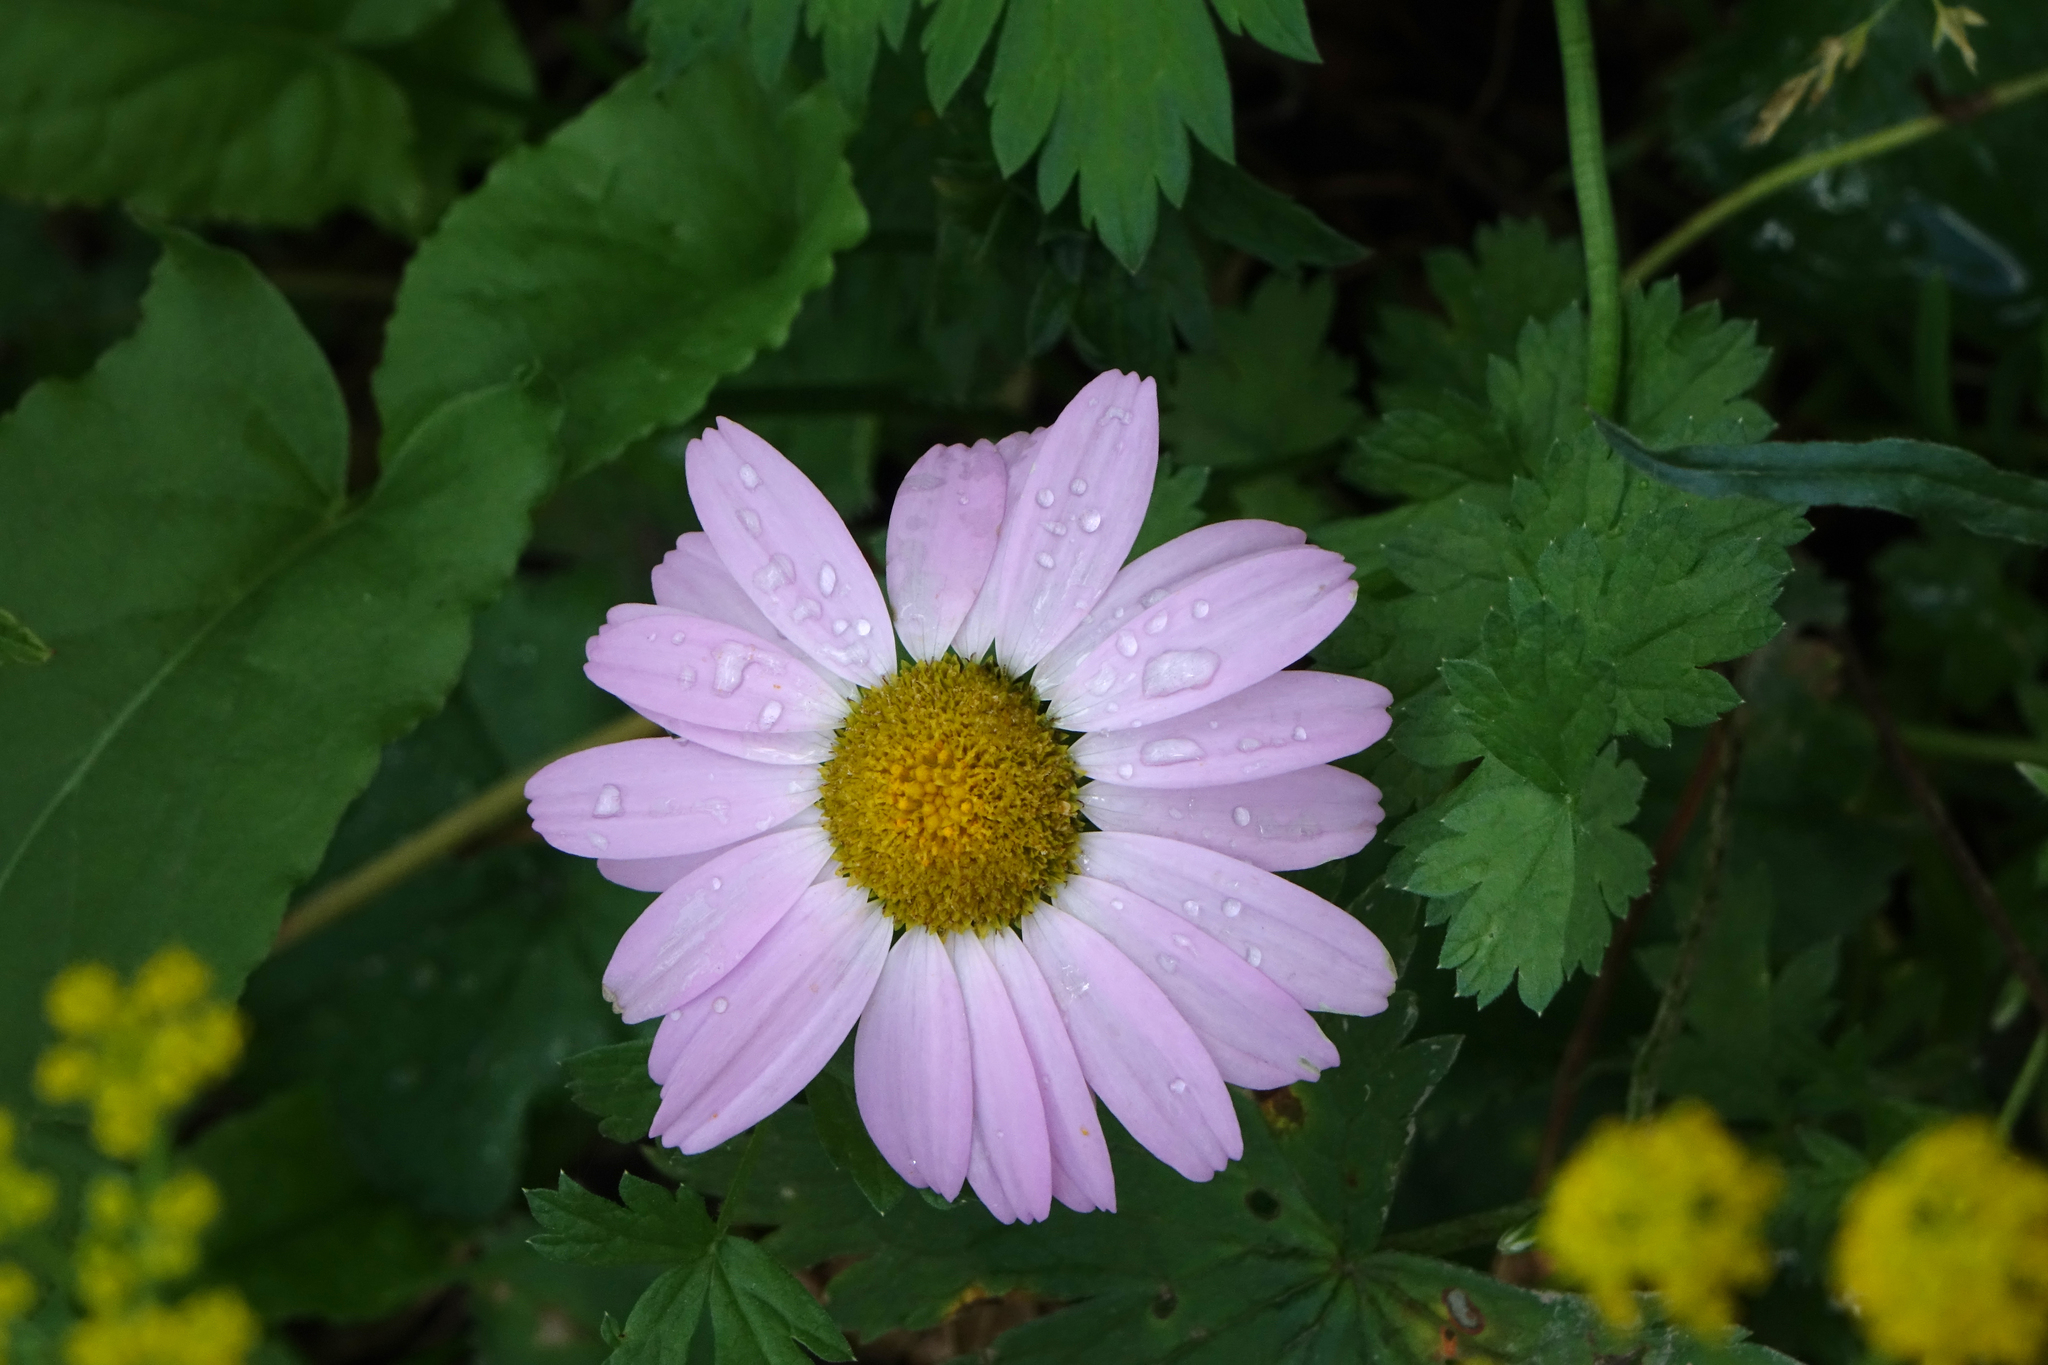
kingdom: Plantae
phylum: Tracheophyta
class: Magnoliopsida
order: Asterales
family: Asteraceae
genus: Tanacetum
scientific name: Tanacetum coccineum
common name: Pyrethum daisy
